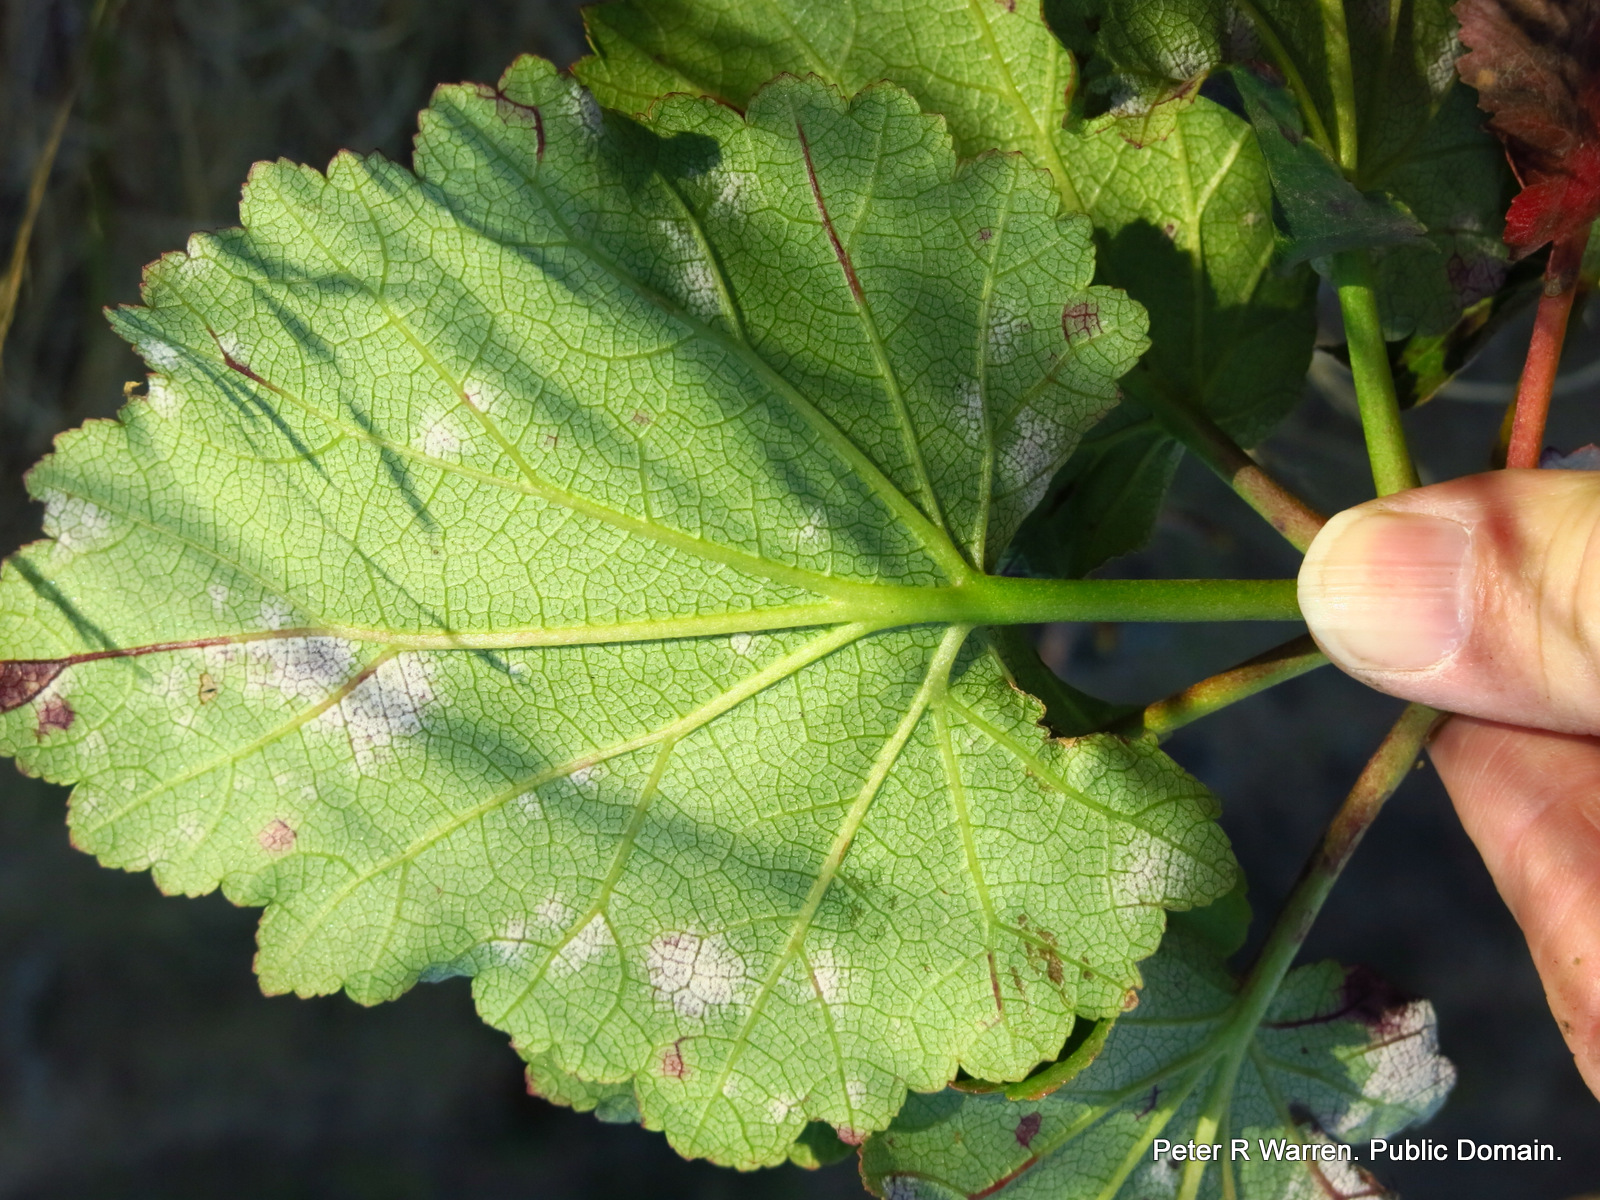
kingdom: Plantae
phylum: Tracheophyta
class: Magnoliopsida
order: Geraniales
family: Francoaceae
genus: Greyia
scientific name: Greyia sutherlandii
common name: Glossy bottlebrush
